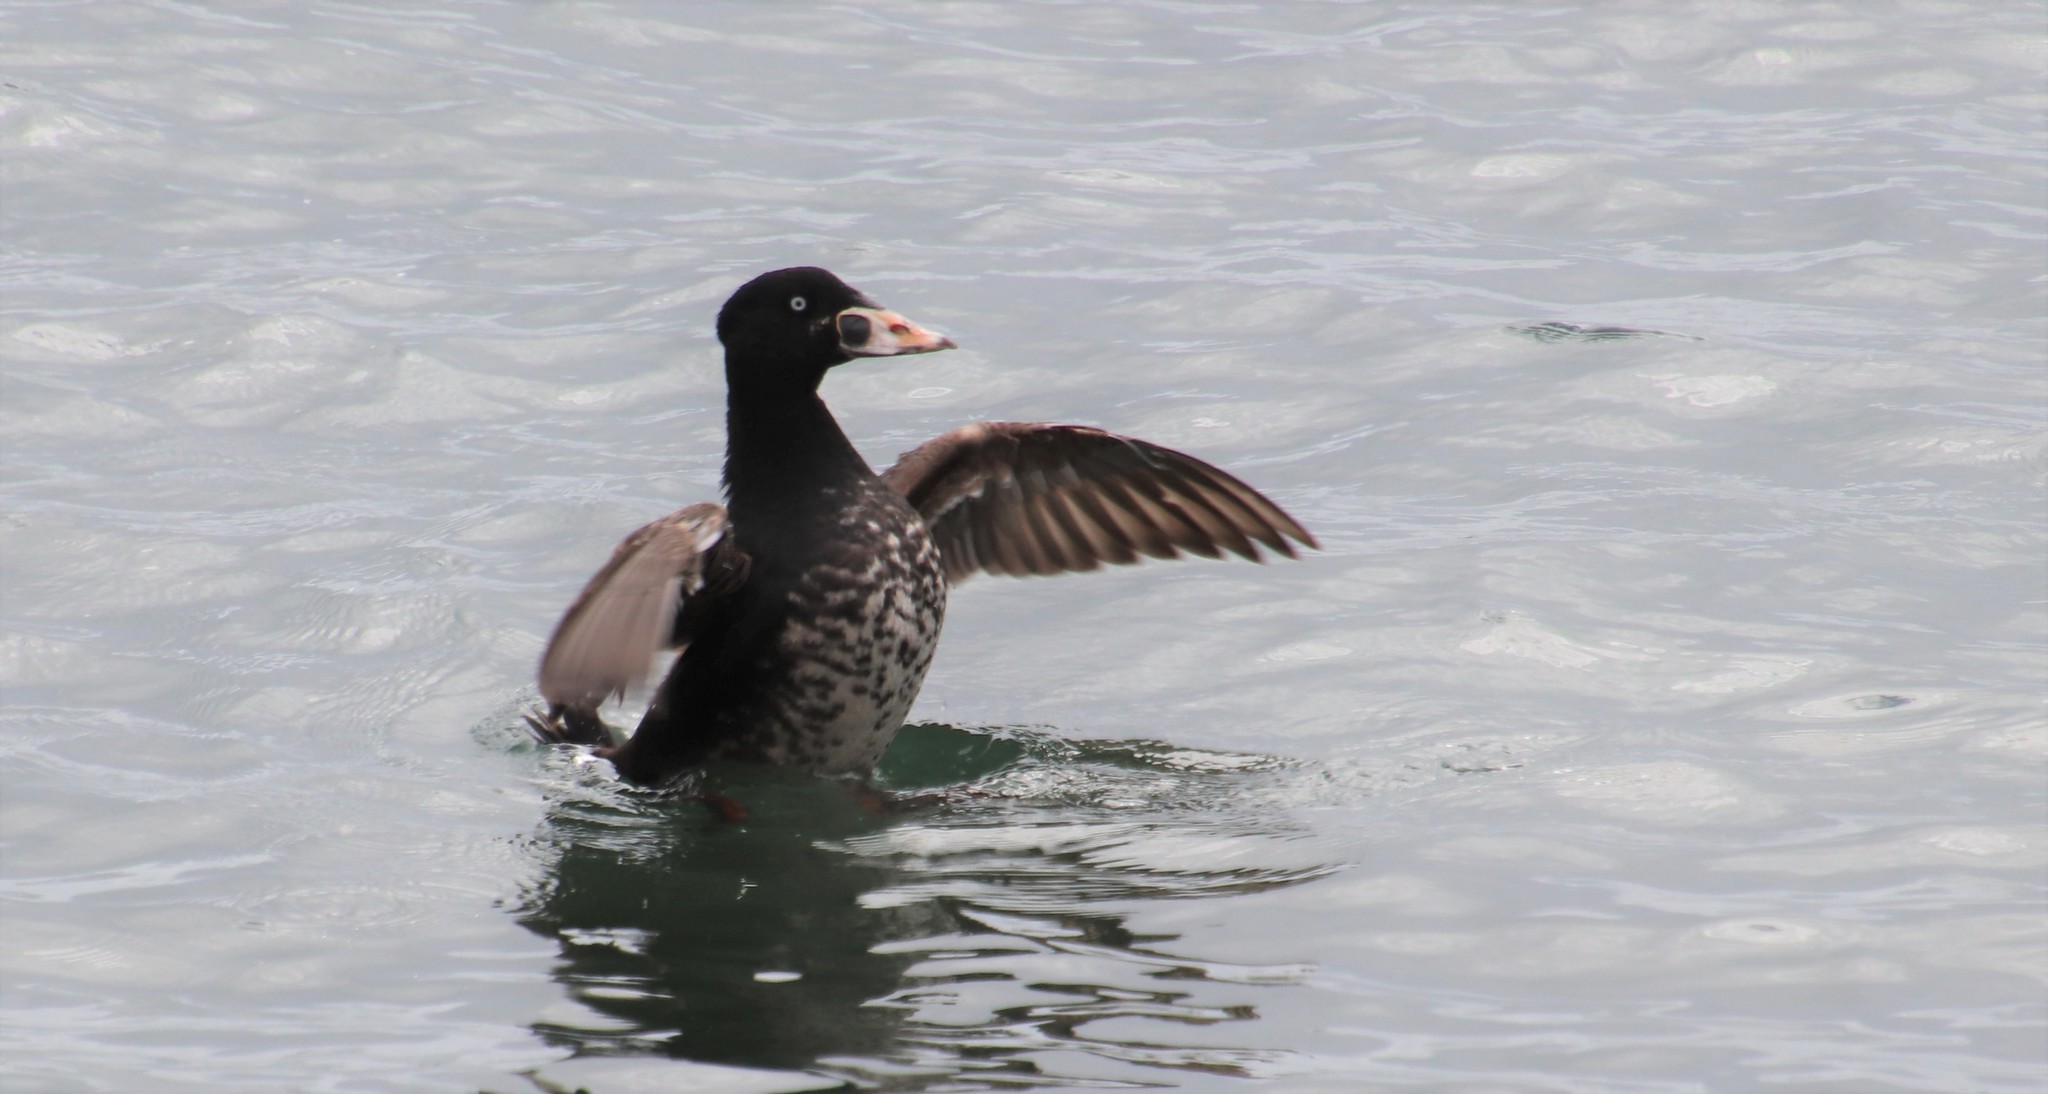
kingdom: Animalia
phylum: Chordata
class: Aves
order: Anseriformes
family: Anatidae
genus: Melanitta
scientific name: Melanitta perspicillata
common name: Surf scoter
